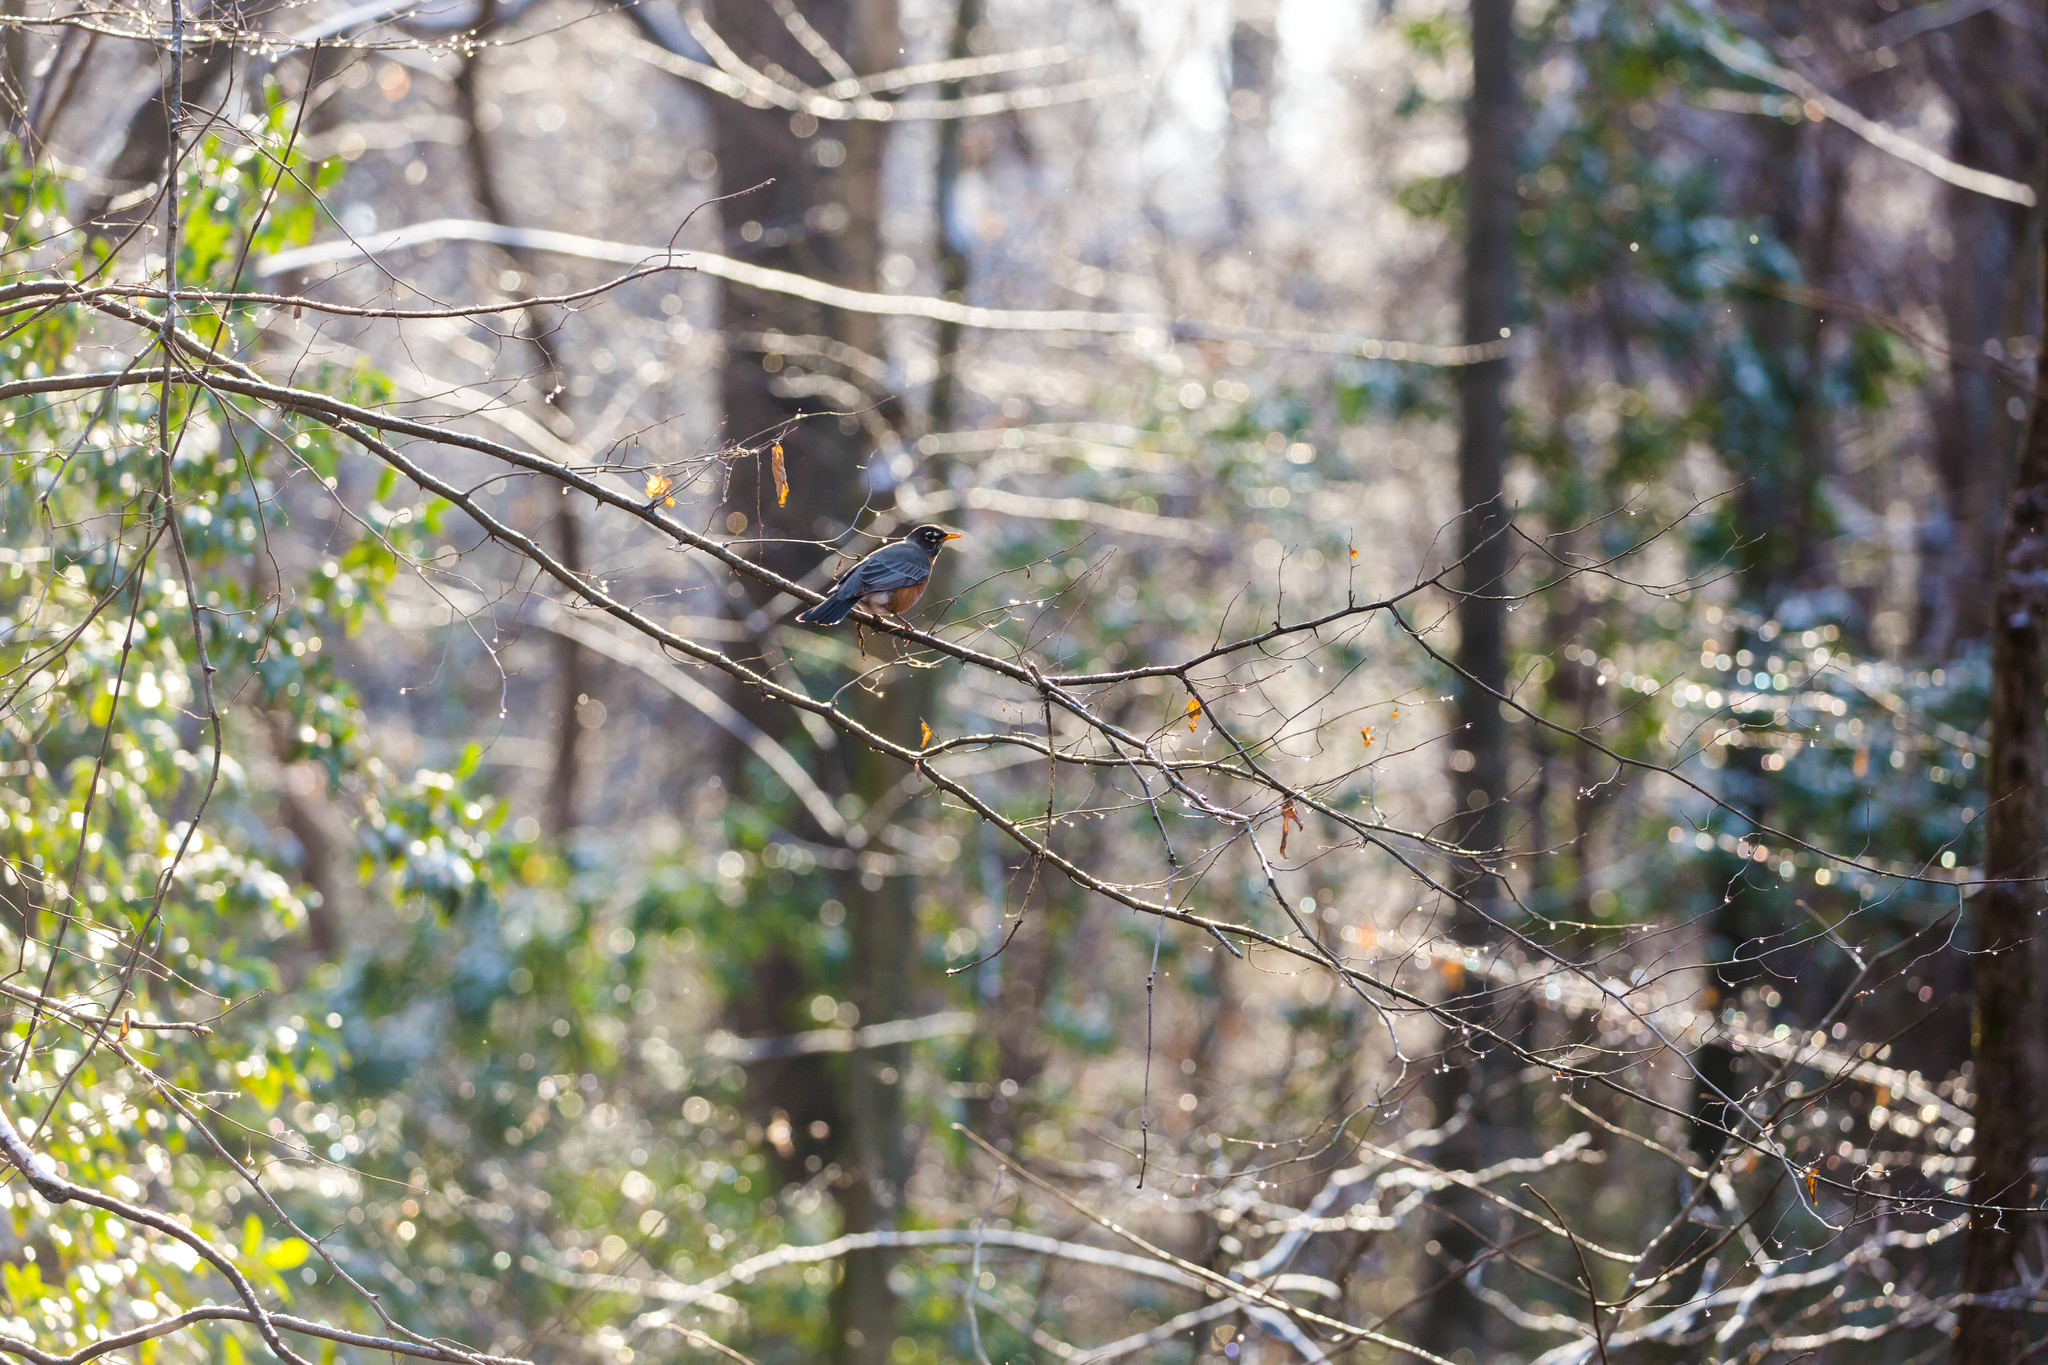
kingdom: Animalia
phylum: Chordata
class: Aves
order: Passeriformes
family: Turdidae
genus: Turdus
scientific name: Turdus migratorius
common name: American robin
